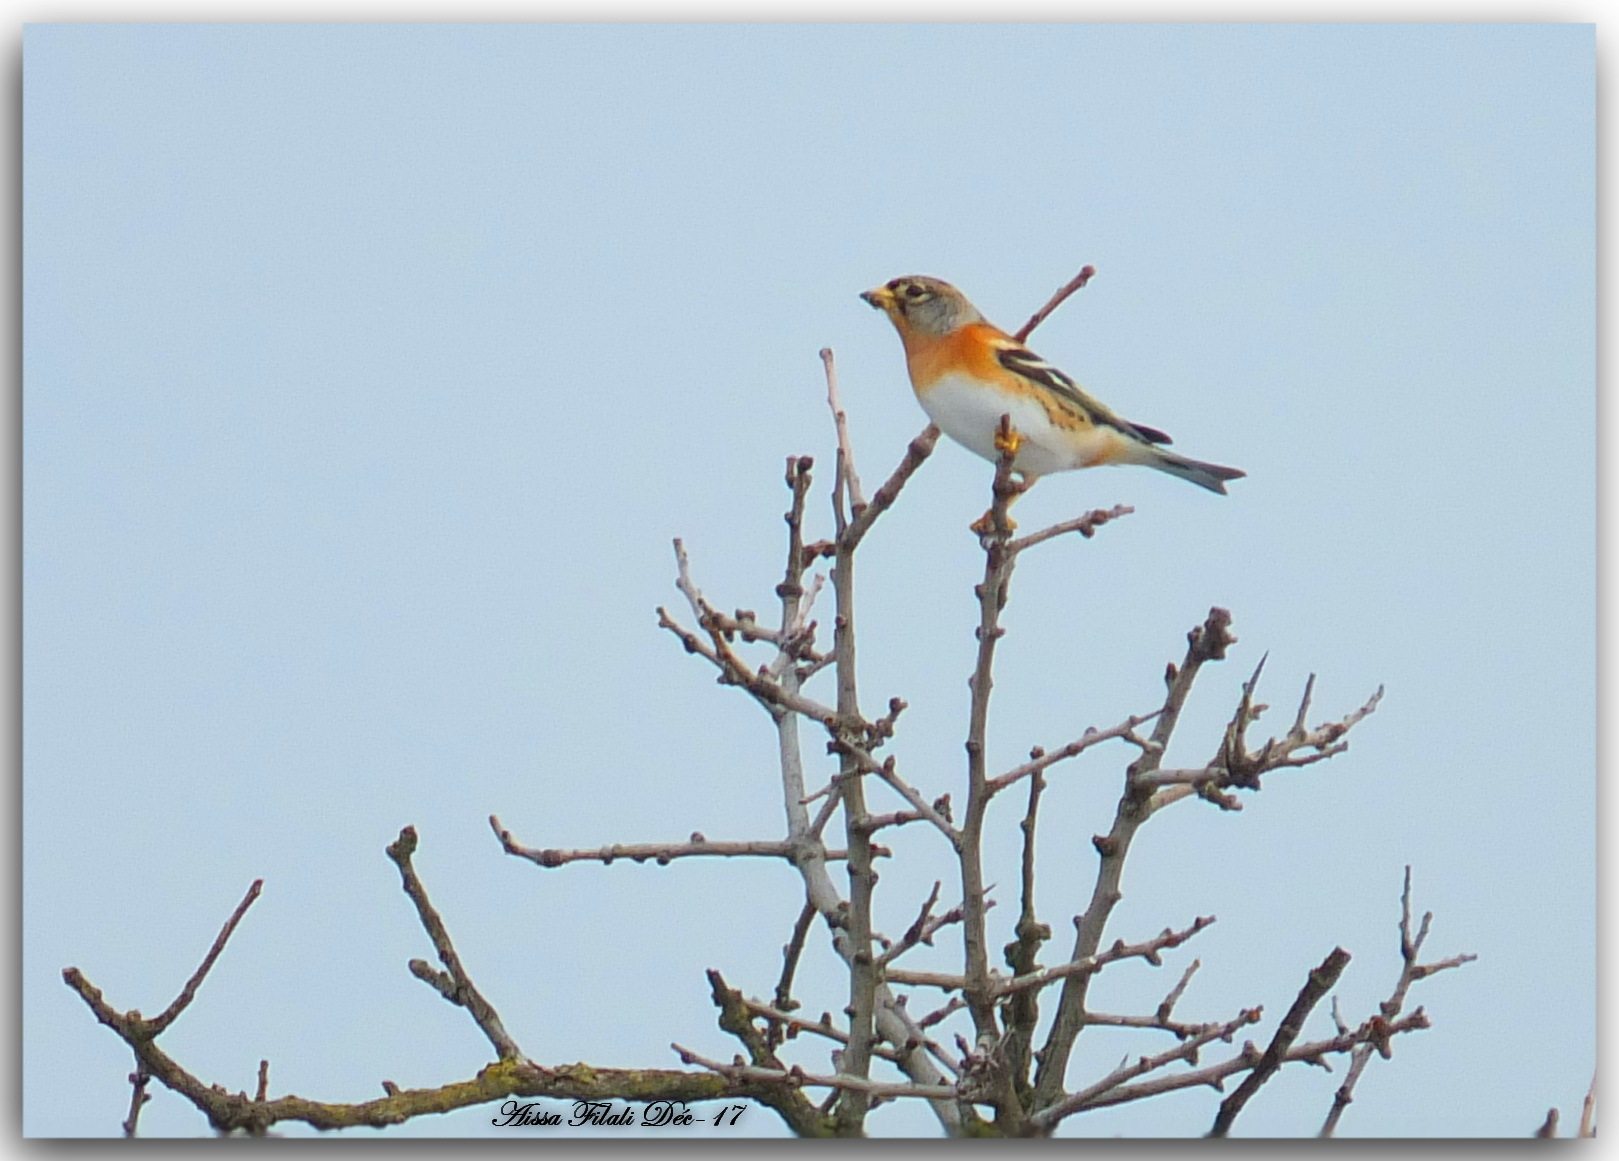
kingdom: Animalia
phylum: Chordata
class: Aves
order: Passeriformes
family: Fringillidae
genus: Fringilla
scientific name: Fringilla montifringilla
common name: Brambling
